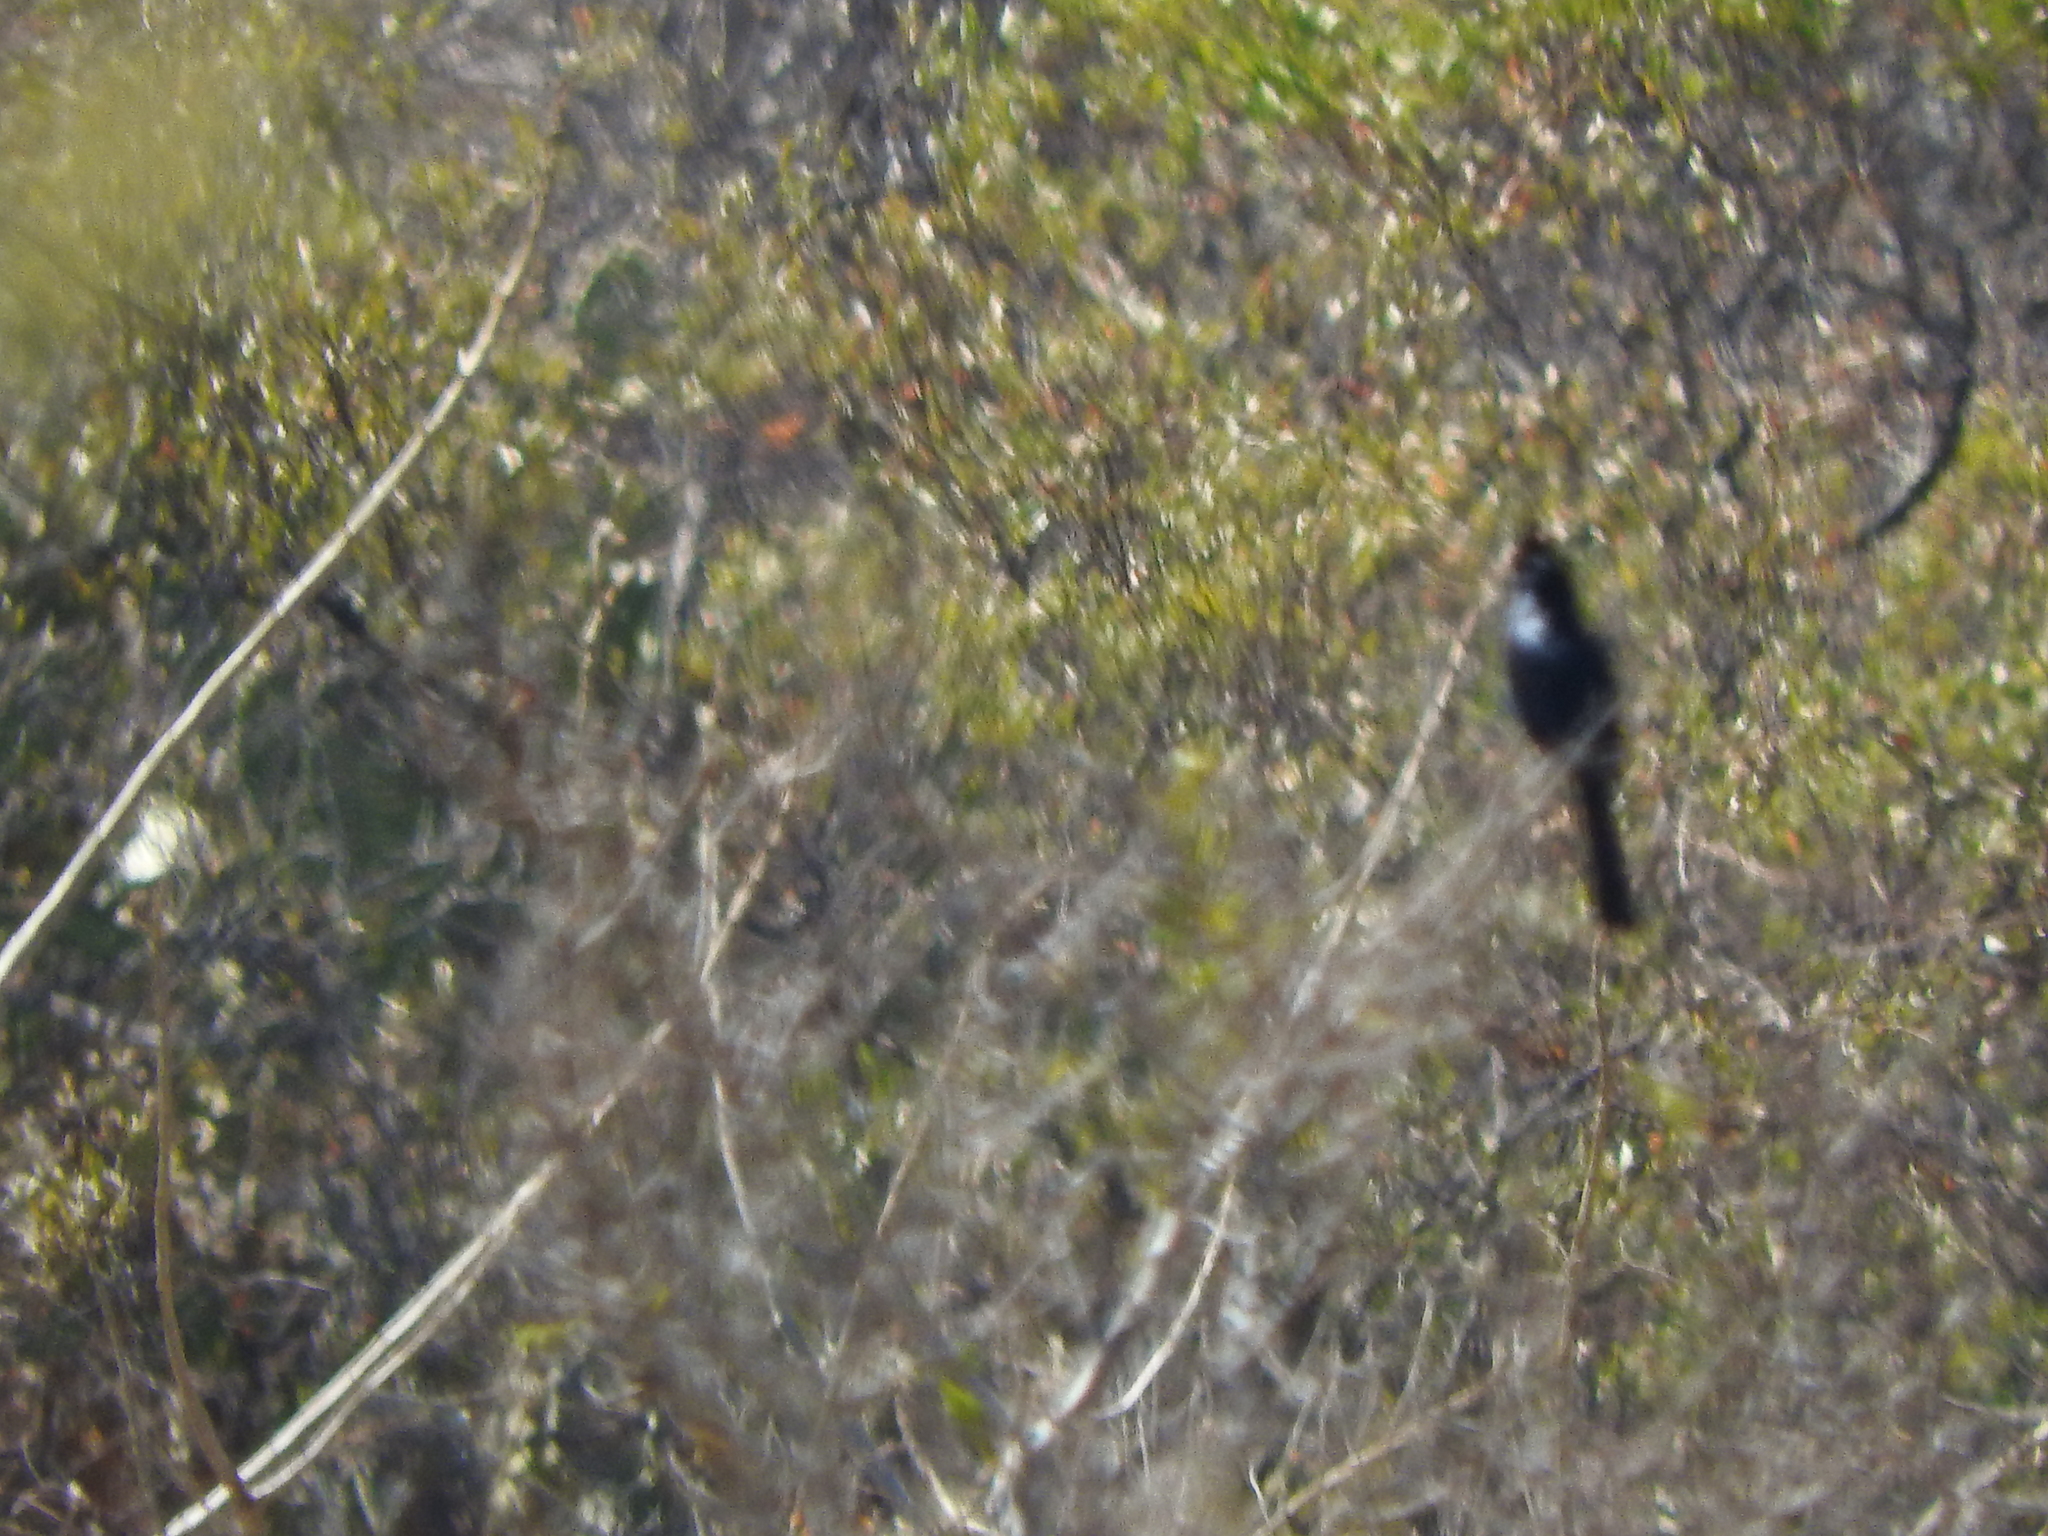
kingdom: Animalia
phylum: Chordata
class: Aves
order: Passeriformes
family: Ptilogonatidae
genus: Phainopepla
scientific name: Phainopepla nitens
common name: Phainopepla
